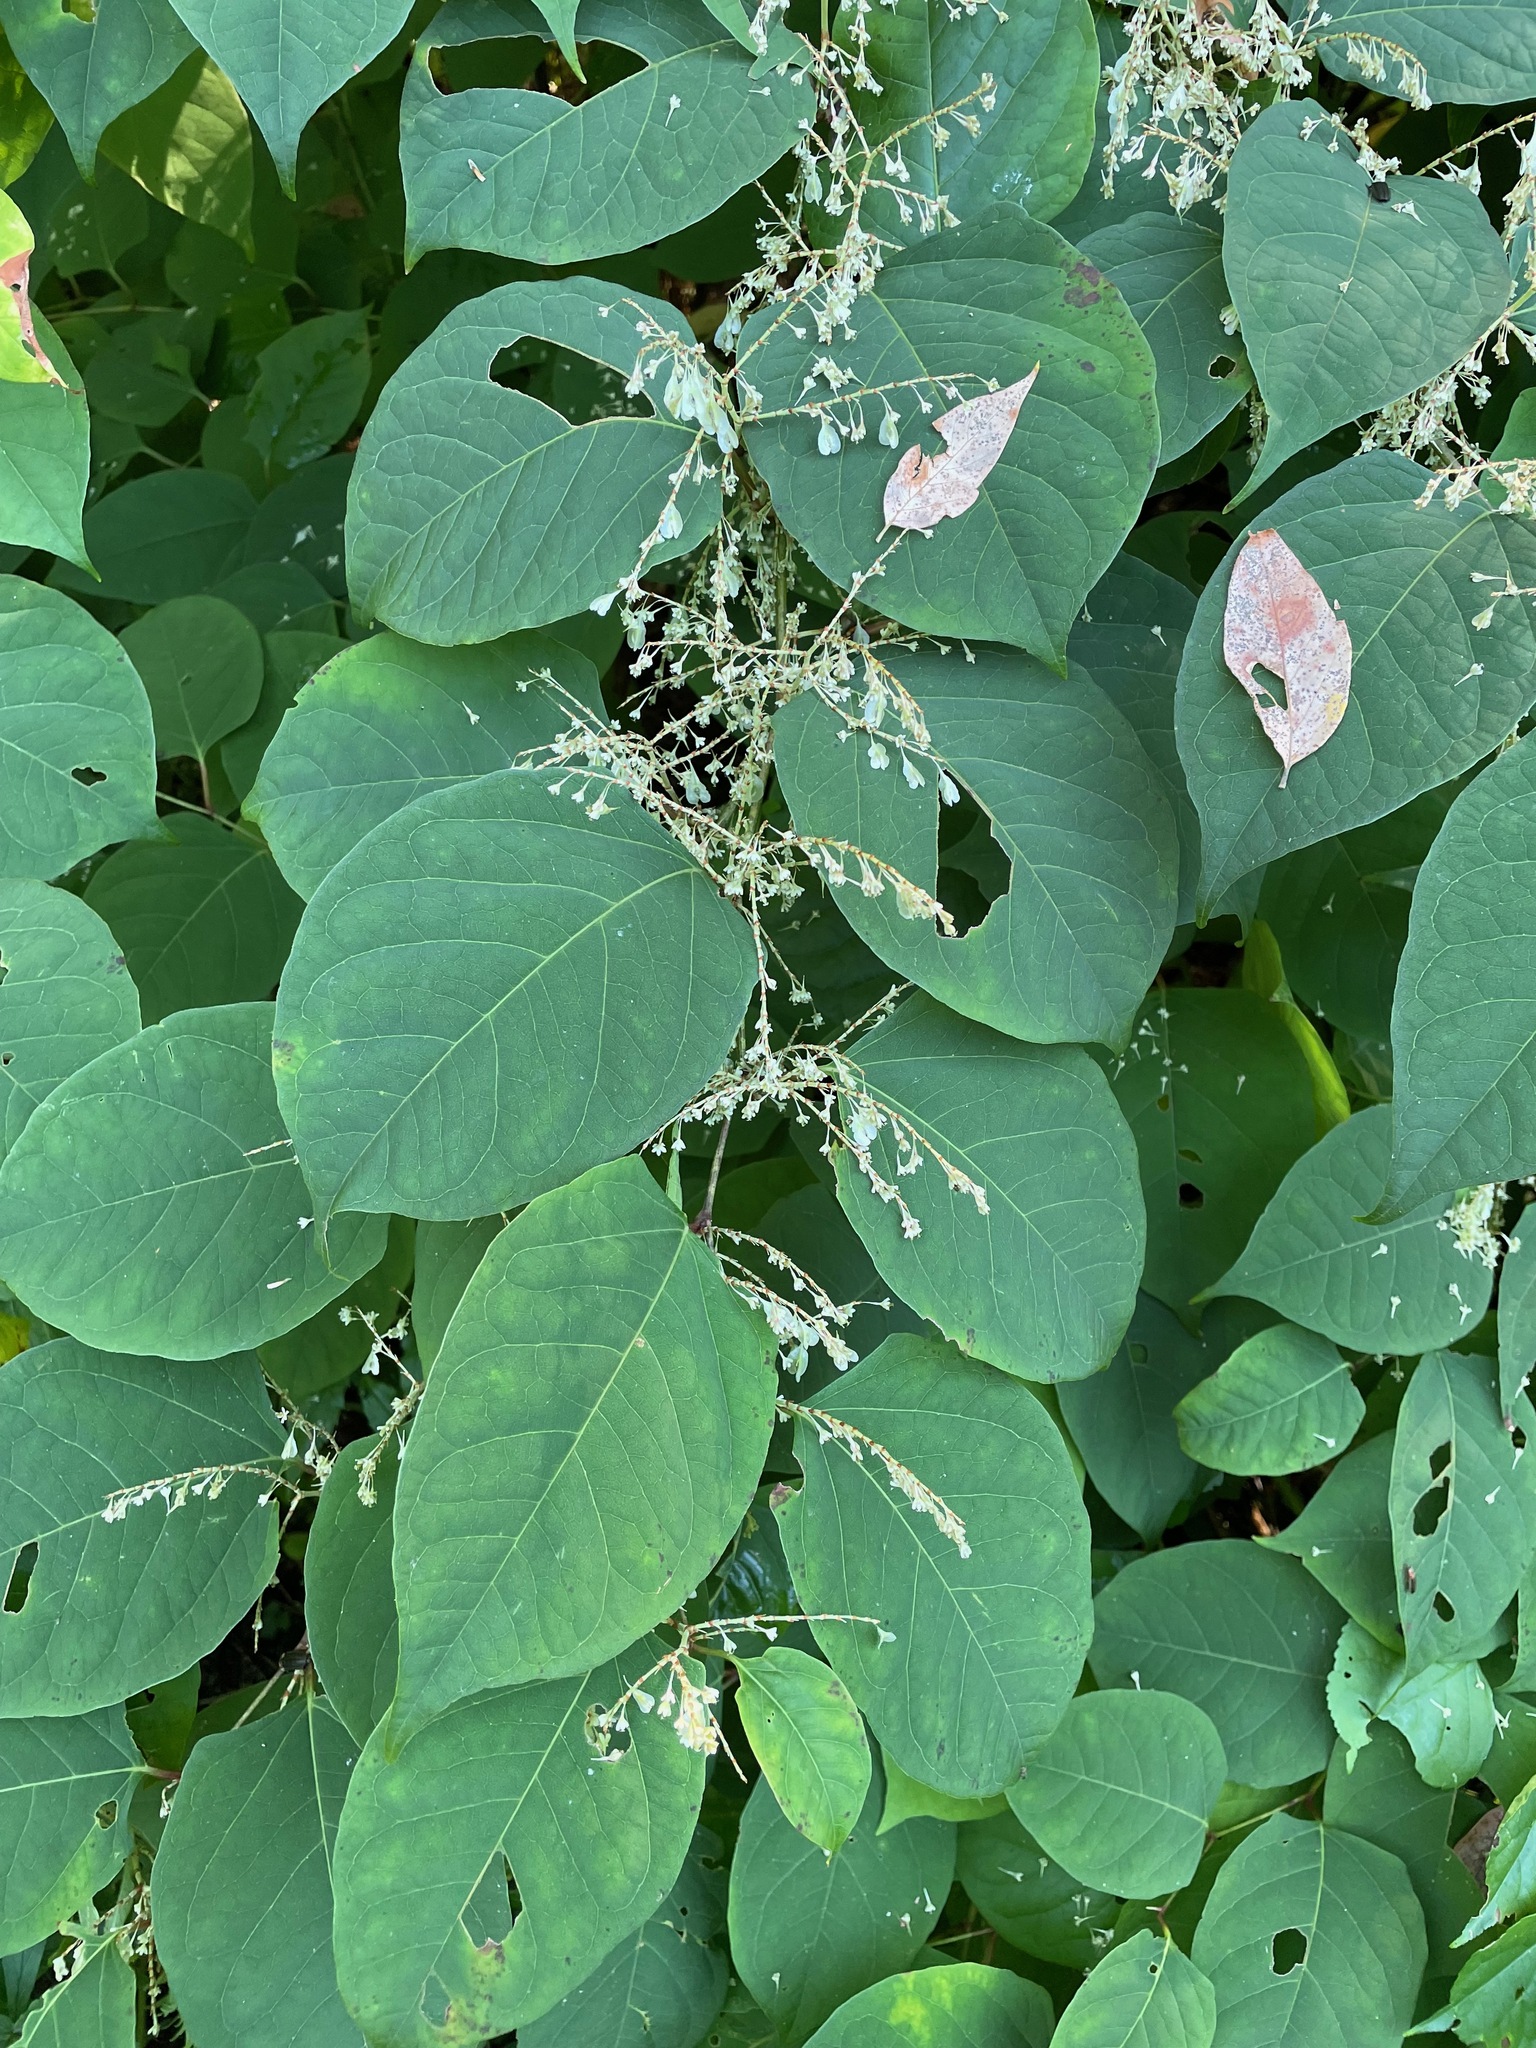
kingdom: Plantae
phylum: Tracheophyta
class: Magnoliopsida
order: Caryophyllales
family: Polygonaceae
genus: Reynoutria
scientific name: Reynoutria japonica
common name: Japanese knotweed
